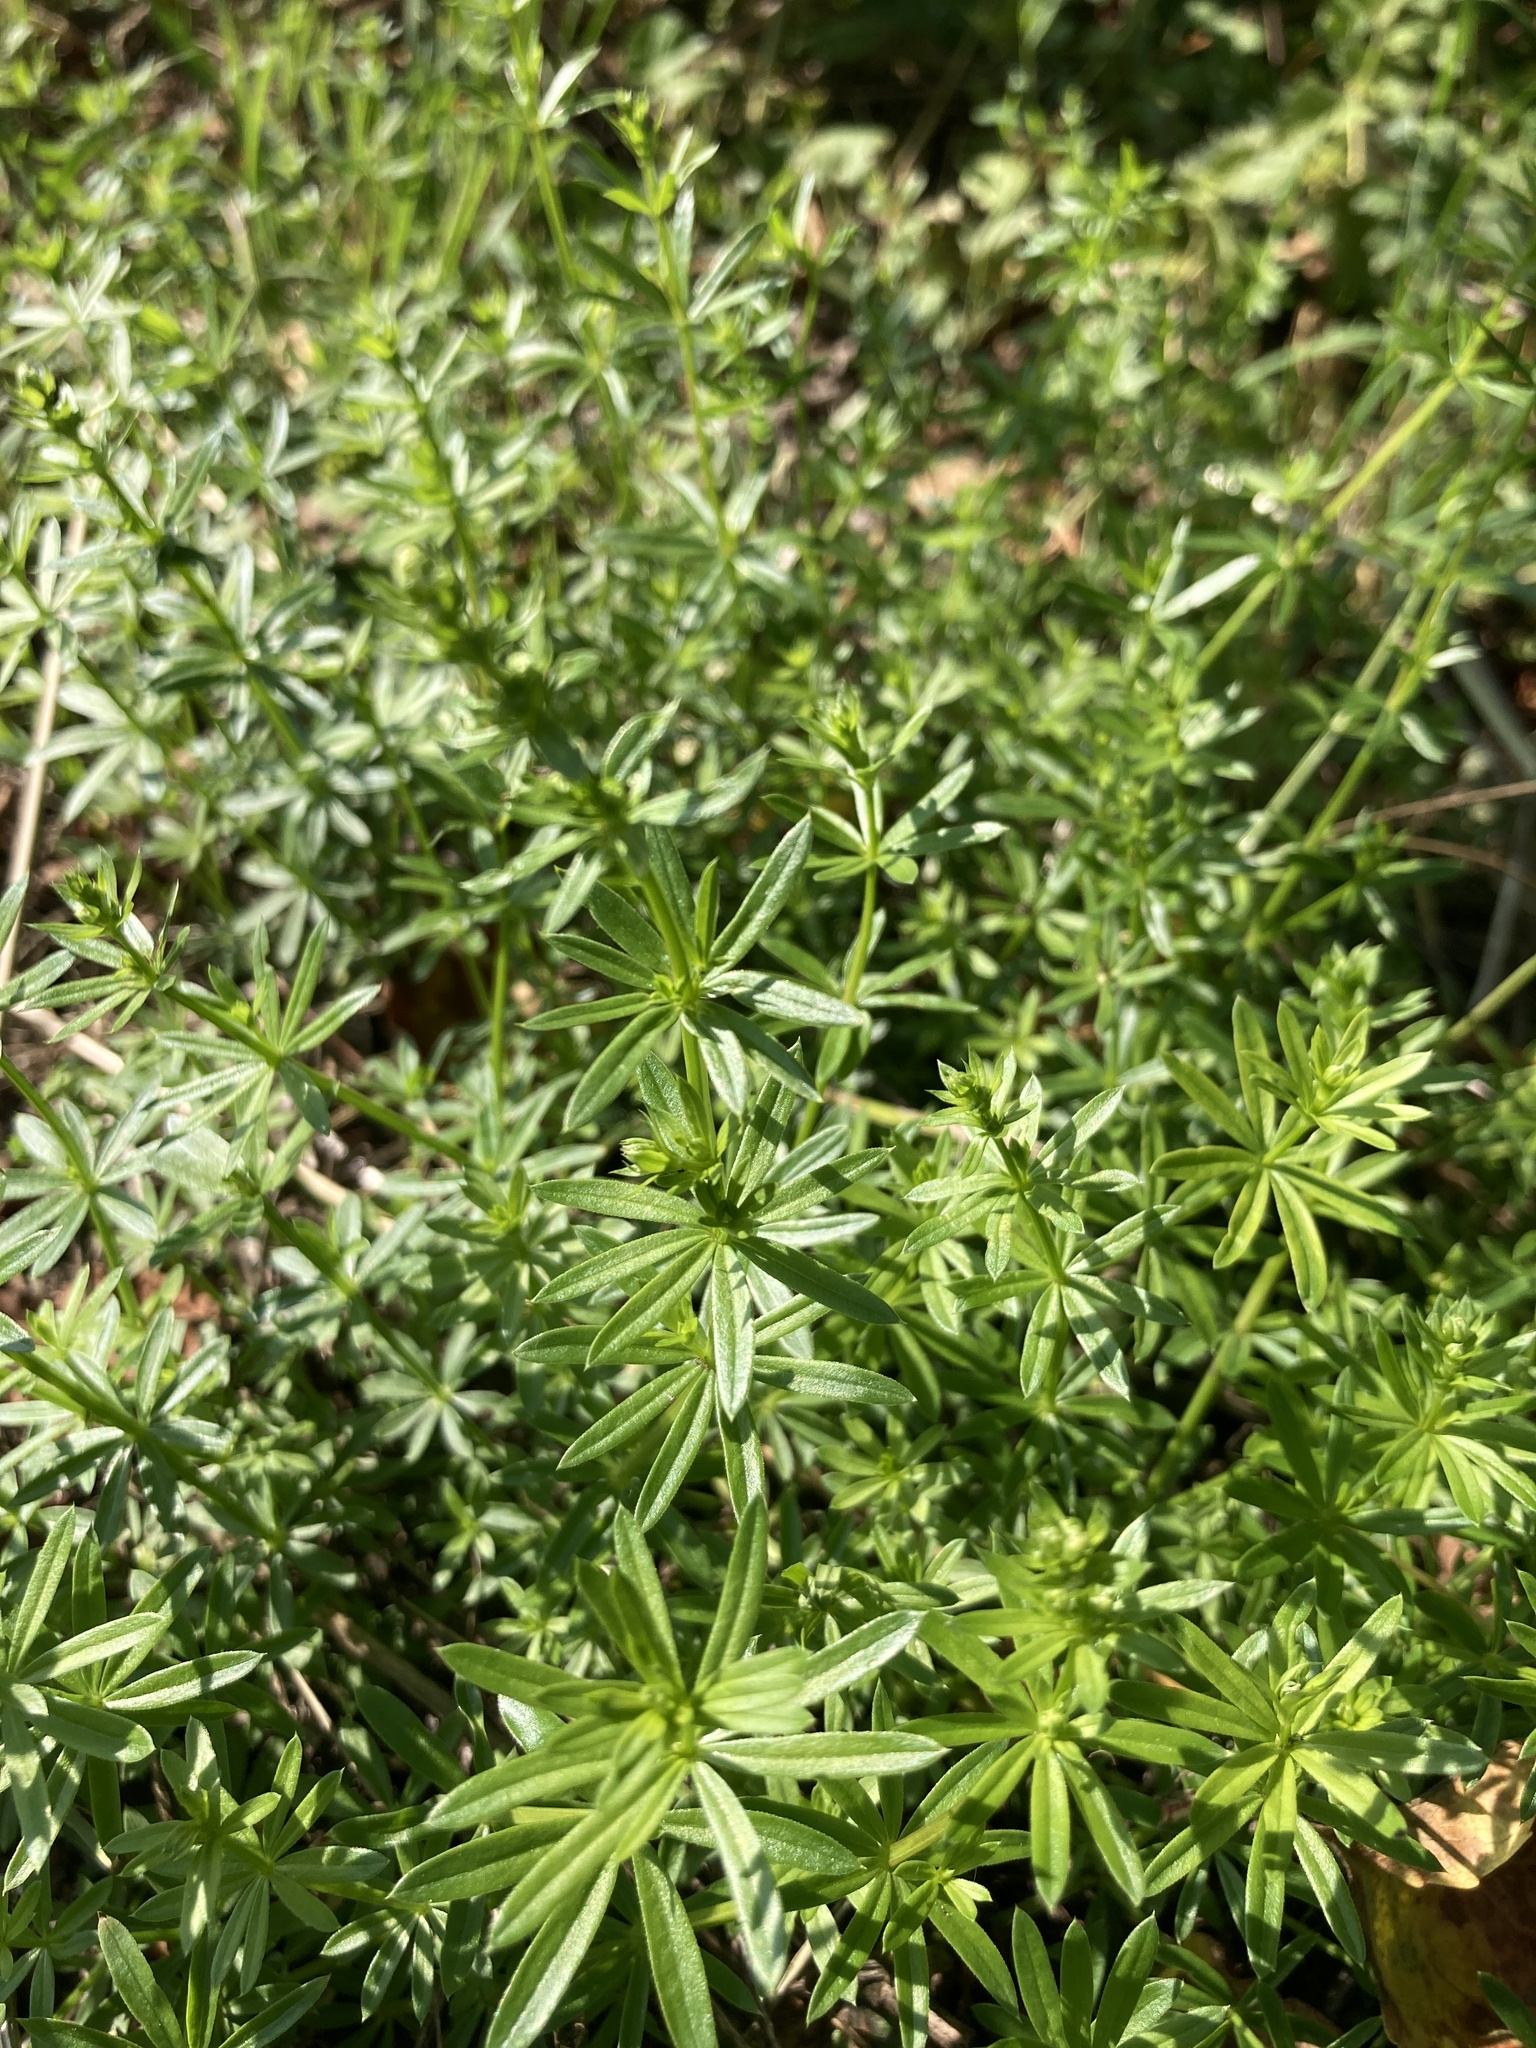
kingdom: Plantae
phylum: Tracheophyta
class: Magnoliopsida
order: Gentianales
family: Rubiaceae
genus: Galium
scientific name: Galium mollugo
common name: Hedge bedstraw
